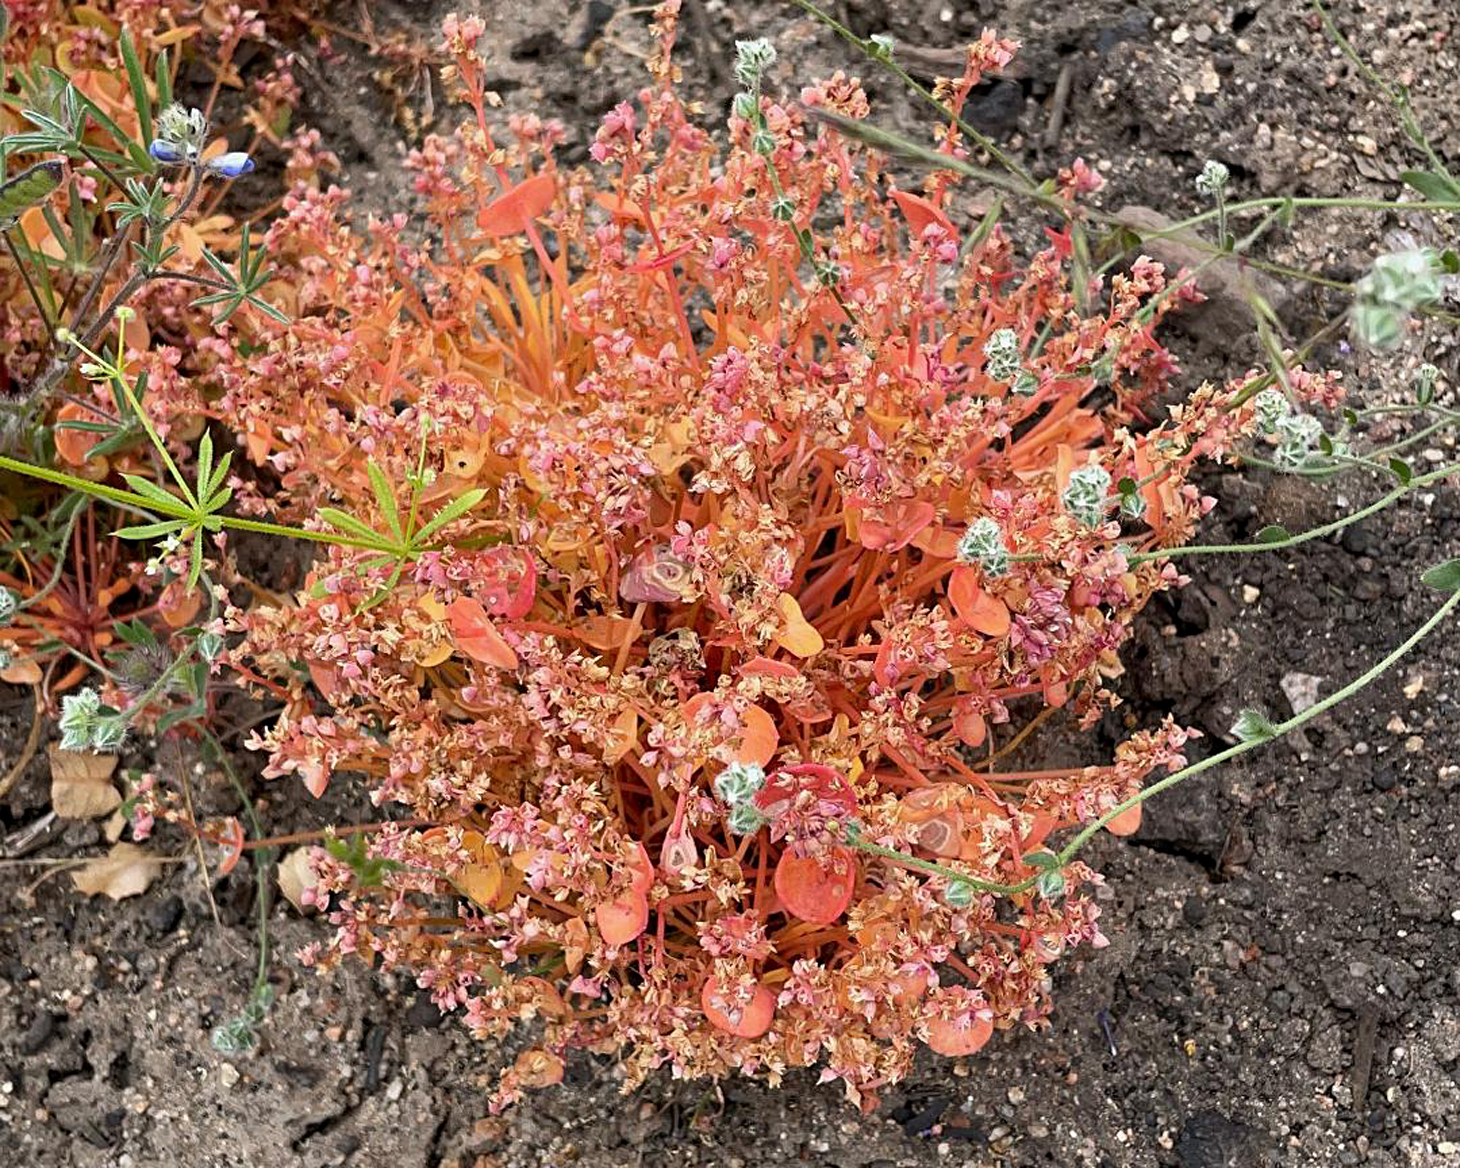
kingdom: Plantae
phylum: Tracheophyta
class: Magnoliopsida
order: Caryophyllales
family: Montiaceae
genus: Claytonia
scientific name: Claytonia rubra
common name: Erubescent miner's-lettuce
